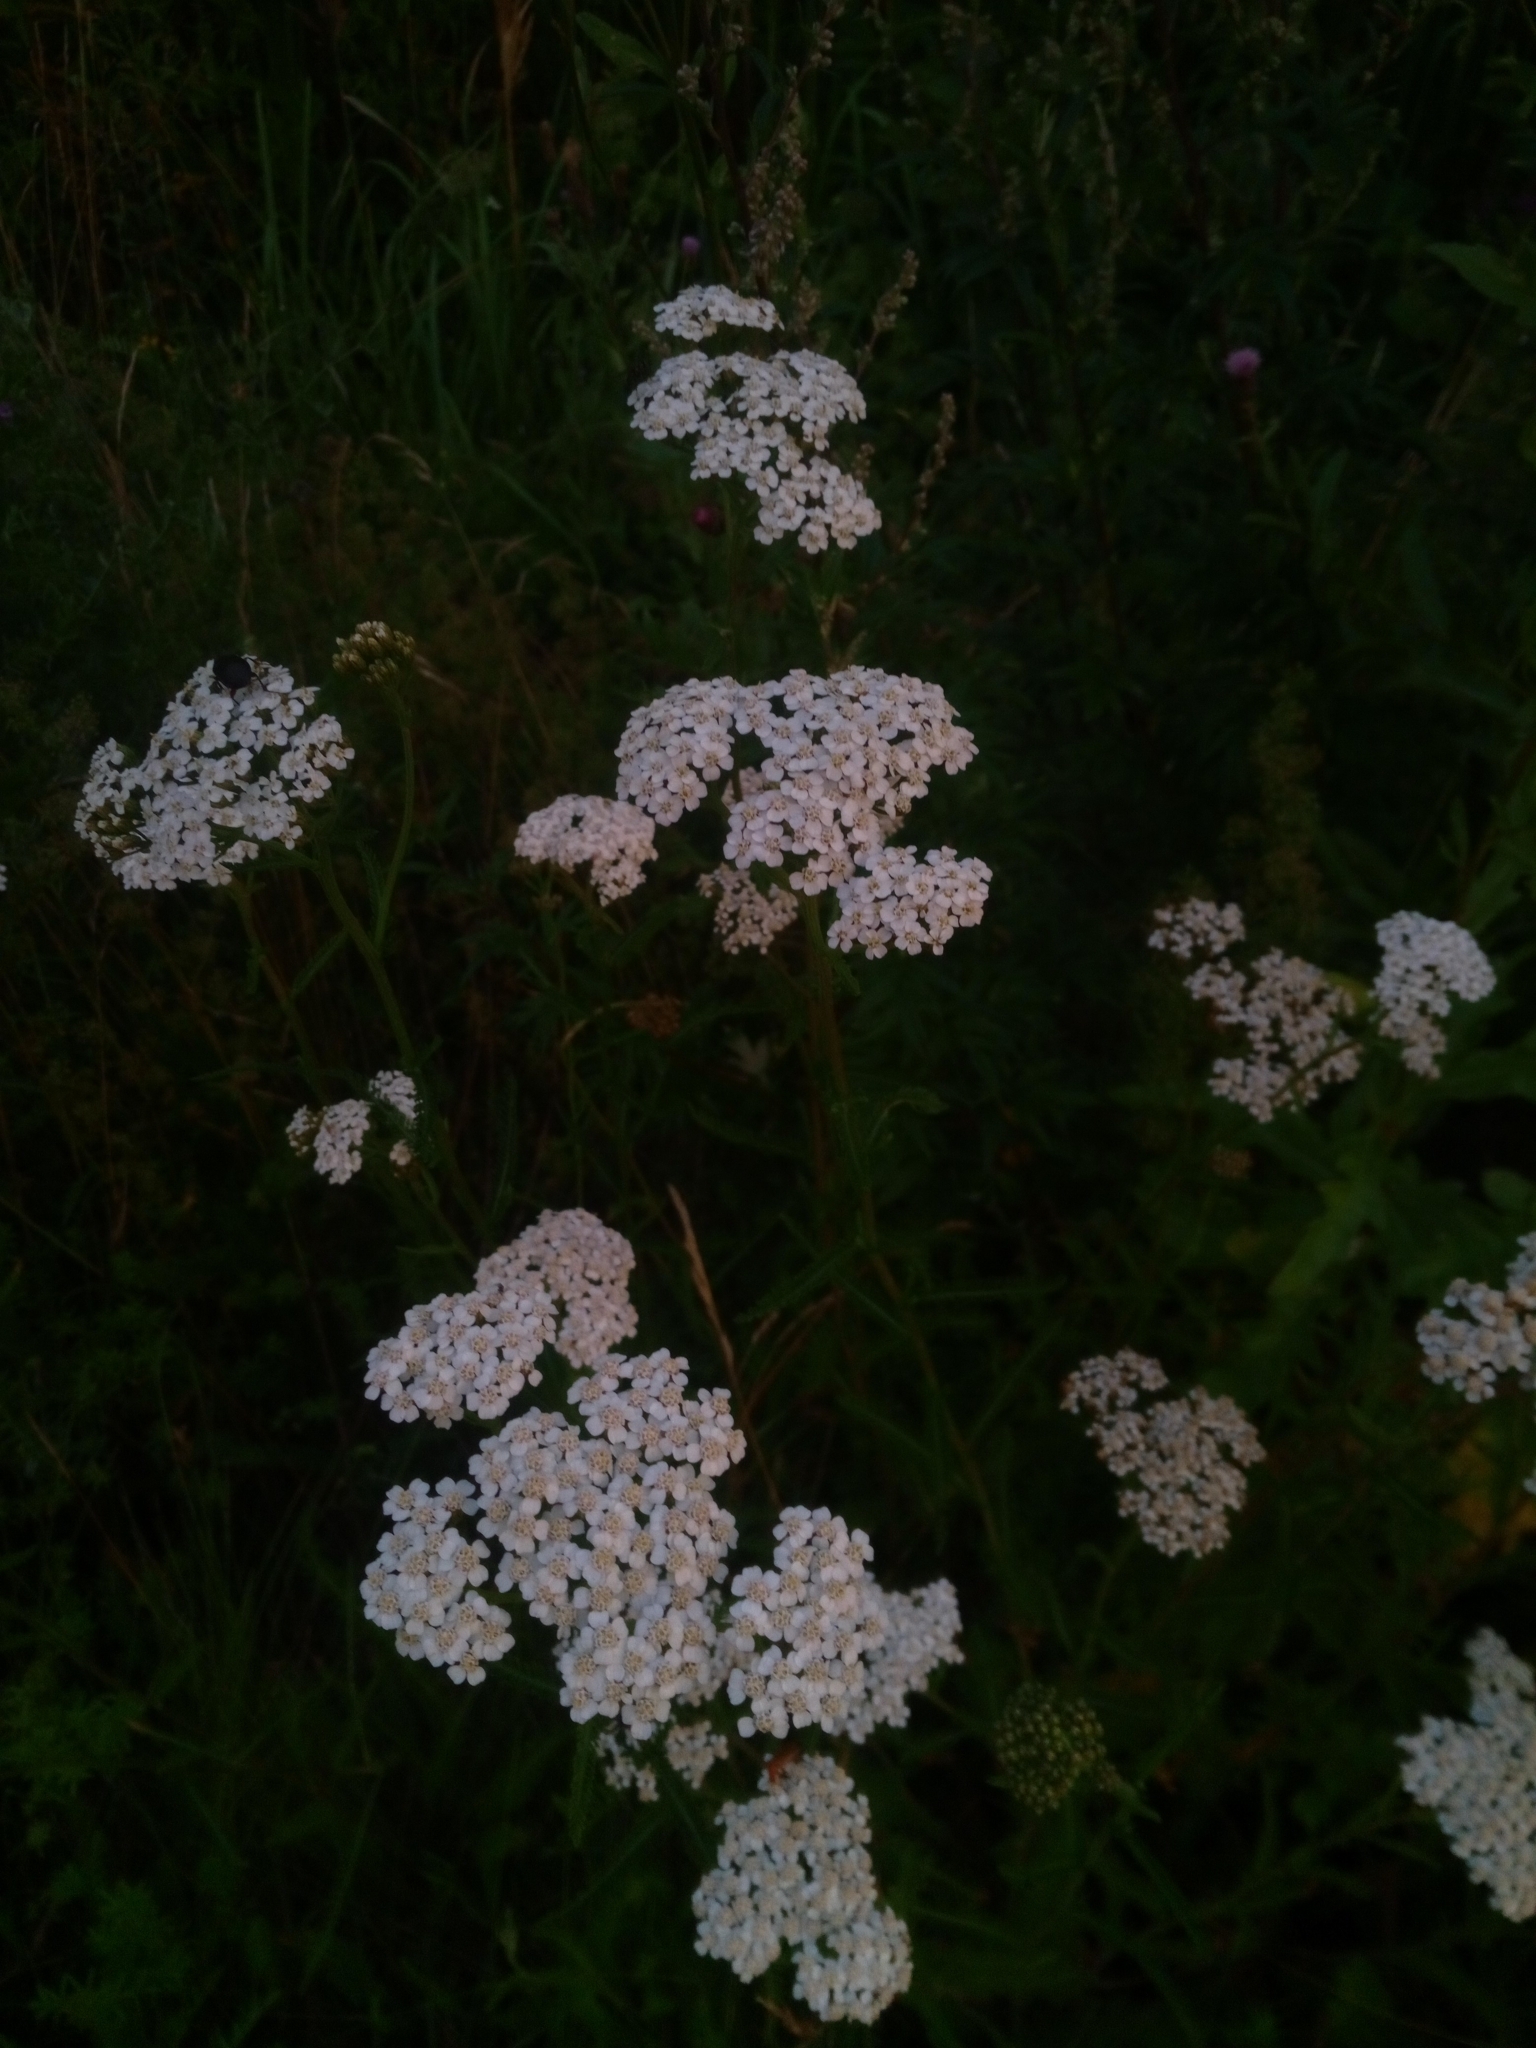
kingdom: Plantae
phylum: Tracheophyta
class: Magnoliopsida
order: Asterales
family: Asteraceae
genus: Achillea
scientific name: Achillea millefolium
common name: Yarrow
